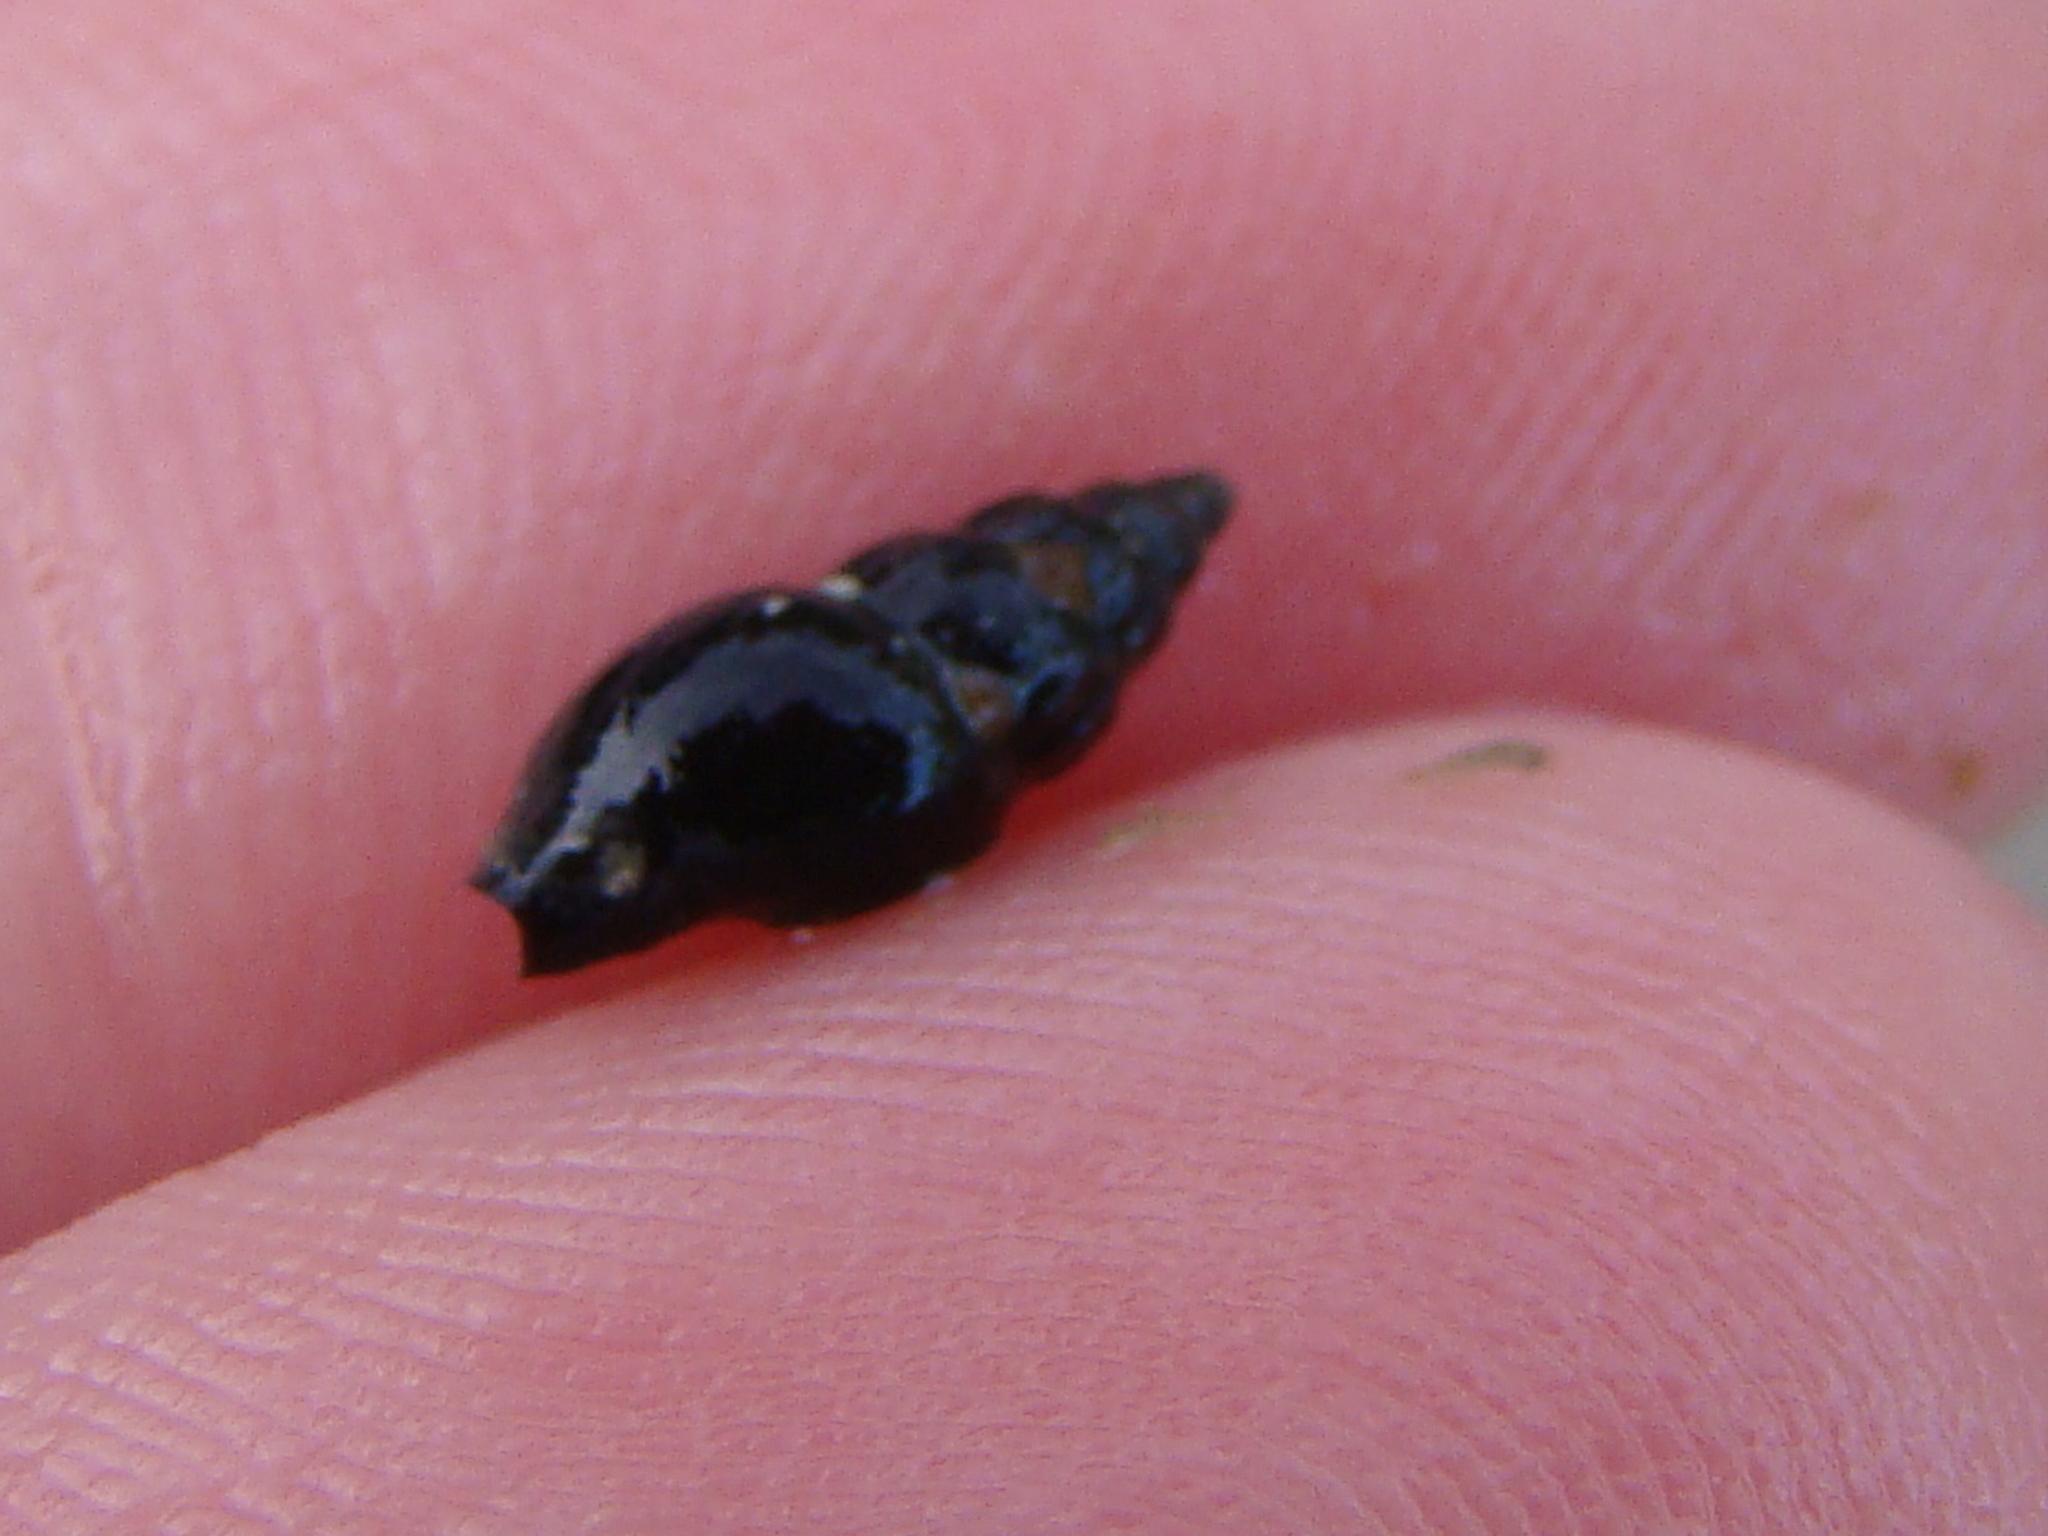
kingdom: Animalia
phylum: Mollusca
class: Gastropoda
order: Neogastropoda
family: Costellariidae
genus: Austromitra
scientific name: Austromitra rubiginosa
